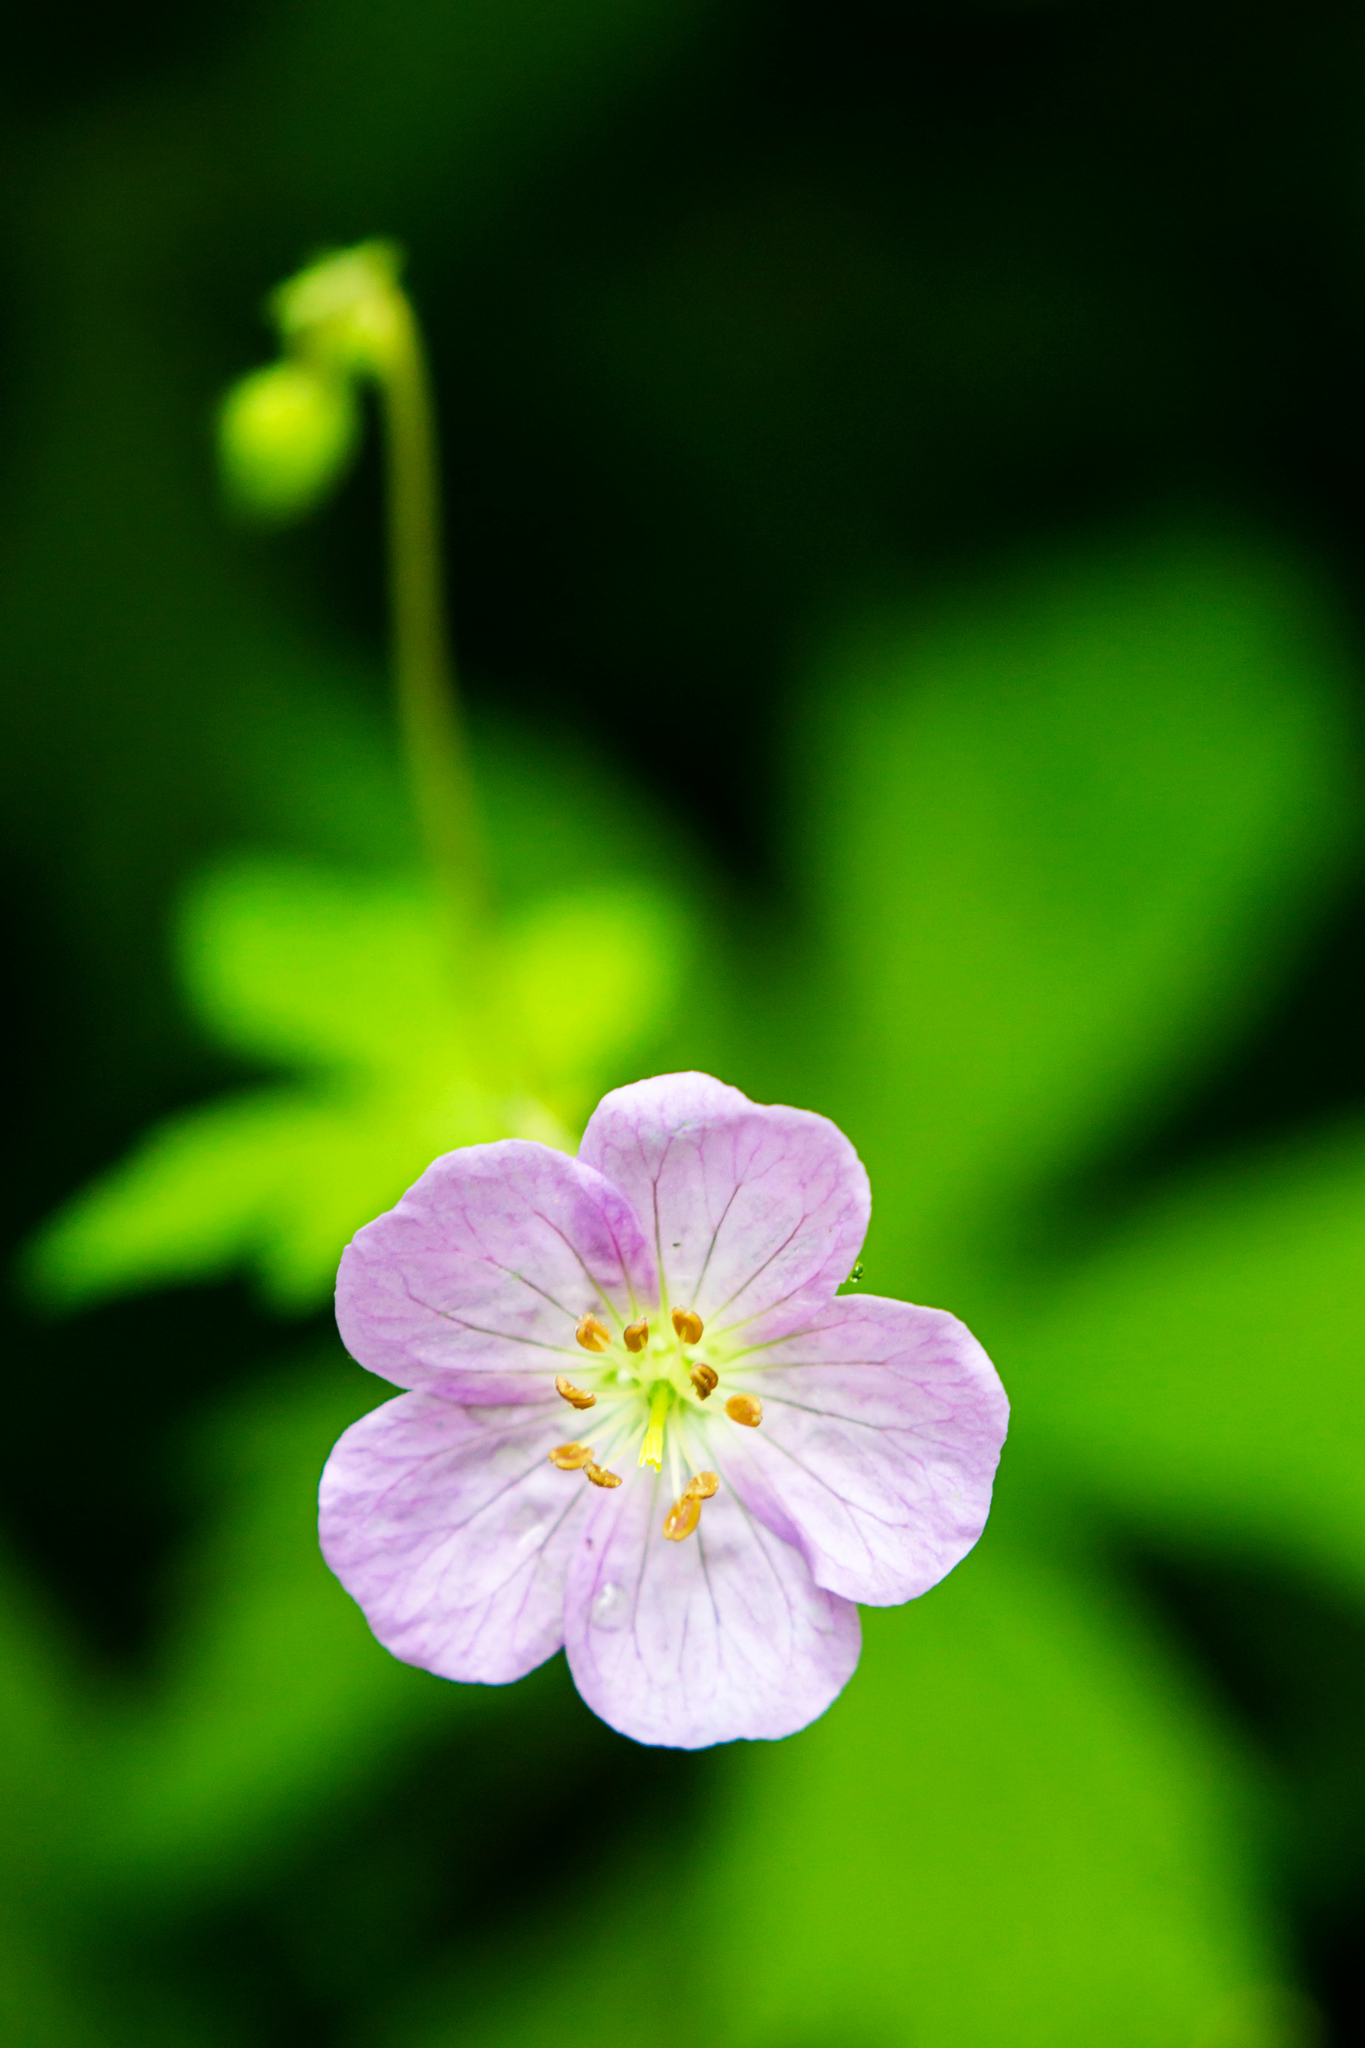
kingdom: Plantae
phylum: Tracheophyta
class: Magnoliopsida
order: Geraniales
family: Geraniaceae
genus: Geranium
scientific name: Geranium maculatum
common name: Spotted geranium
